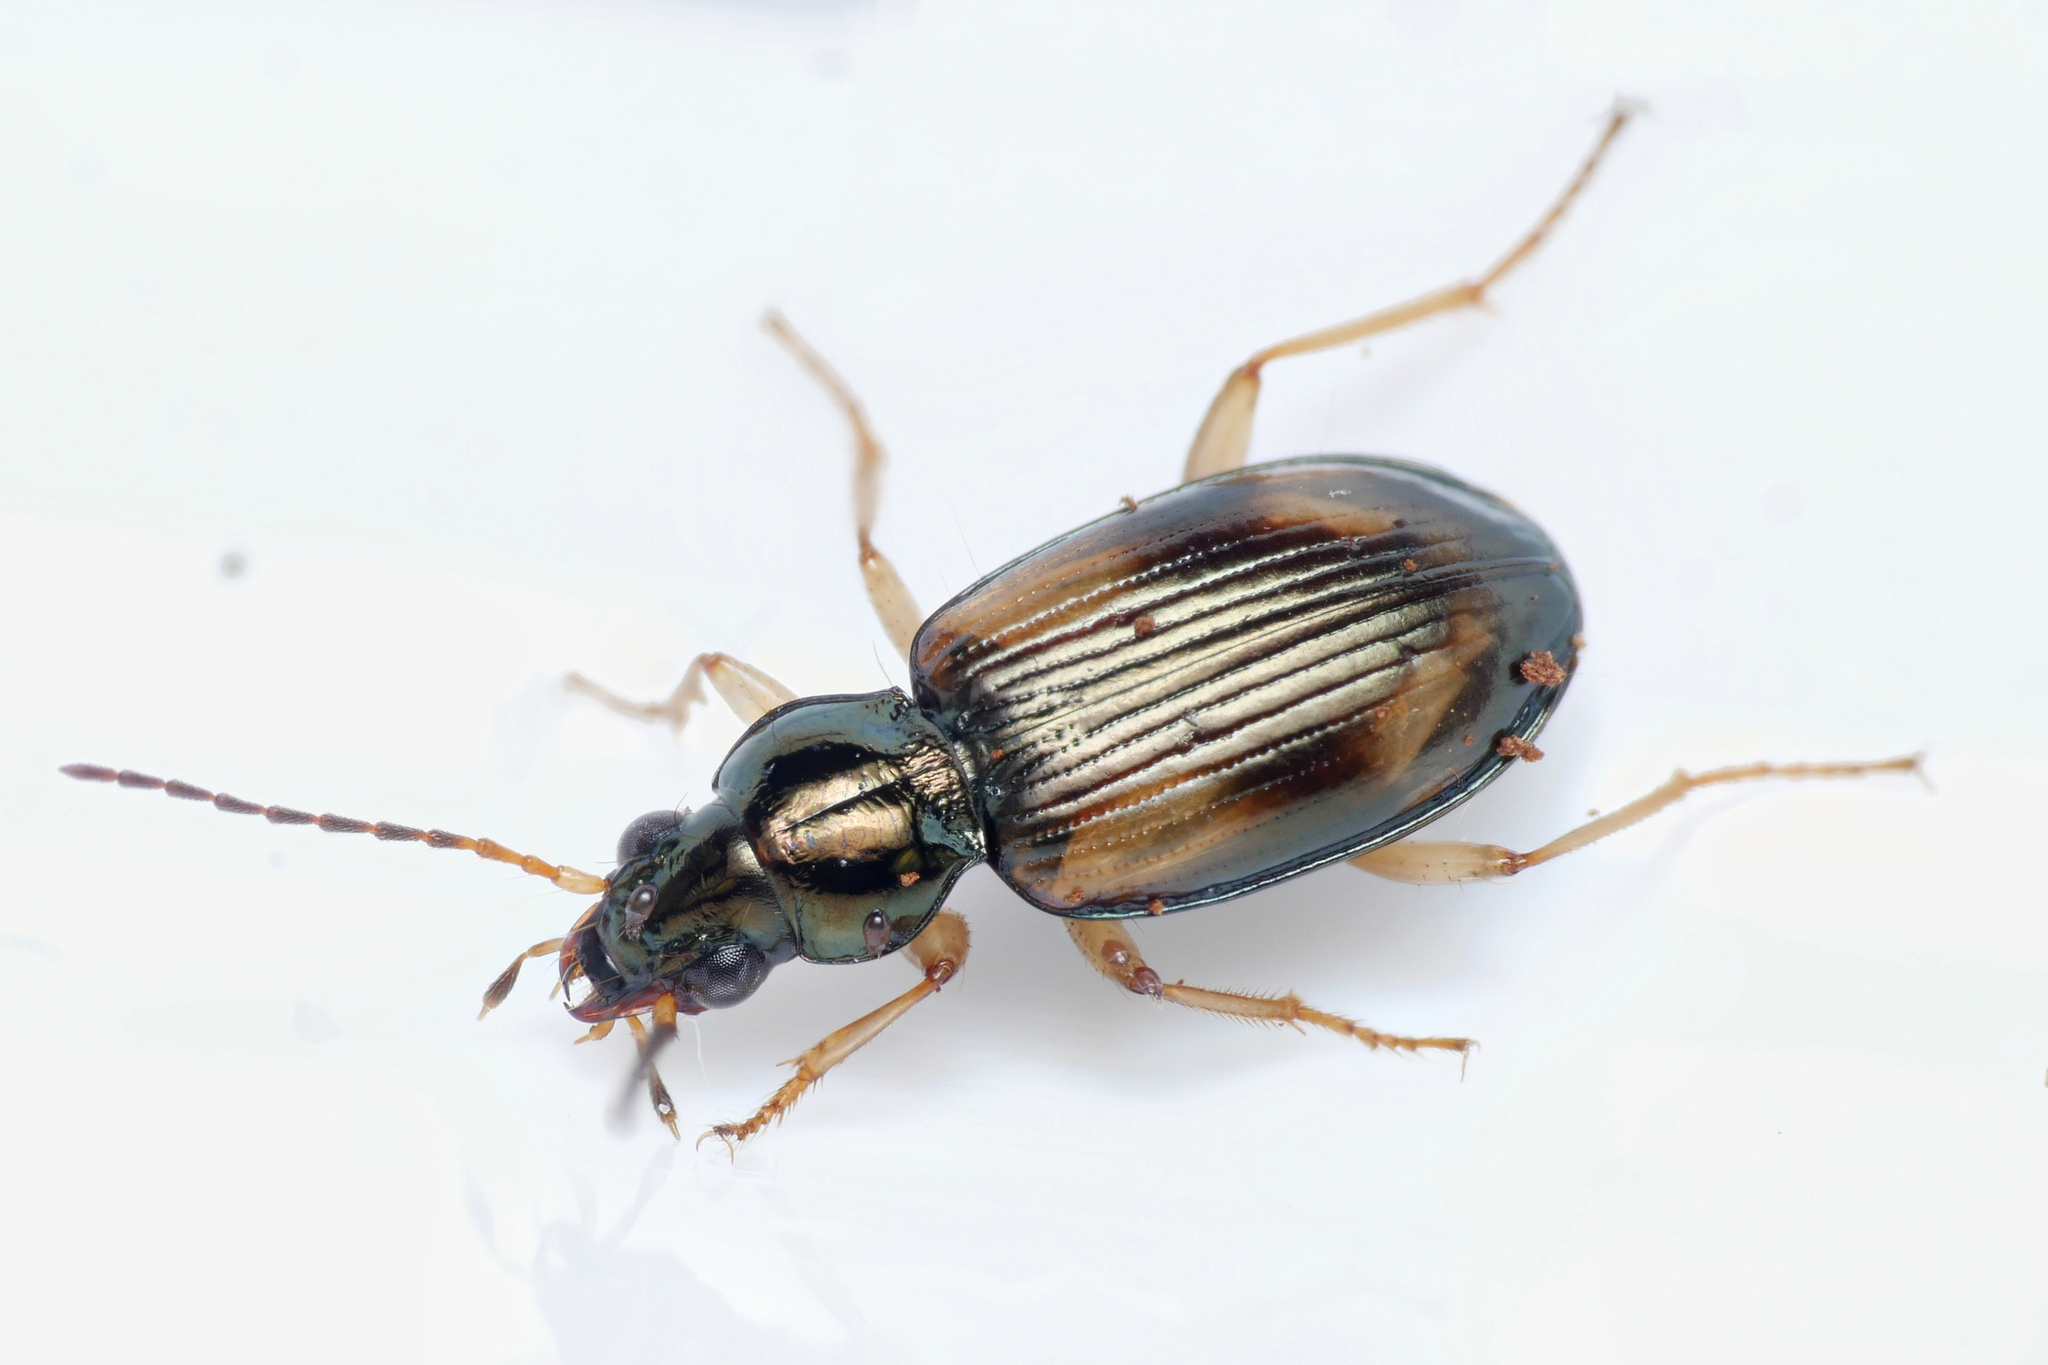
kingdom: Animalia
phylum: Arthropoda
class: Insecta
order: Coleoptera
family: Carabidae
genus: Bembidion
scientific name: Bembidion tetracolum
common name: Seine riverbank ground beetle
